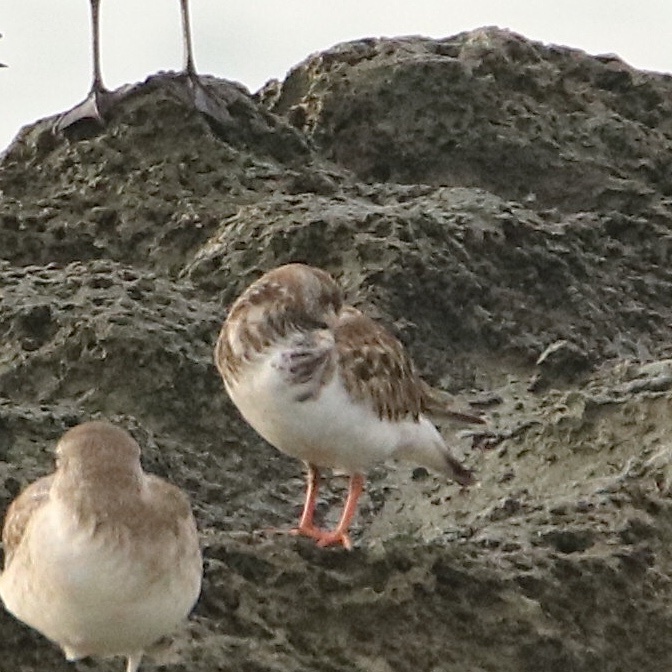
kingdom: Animalia
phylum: Chordata
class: Aves
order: Charadriiformes
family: Scolopacidae
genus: Arenaria
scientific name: Arenaria interpres
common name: Ruddy turnstone
